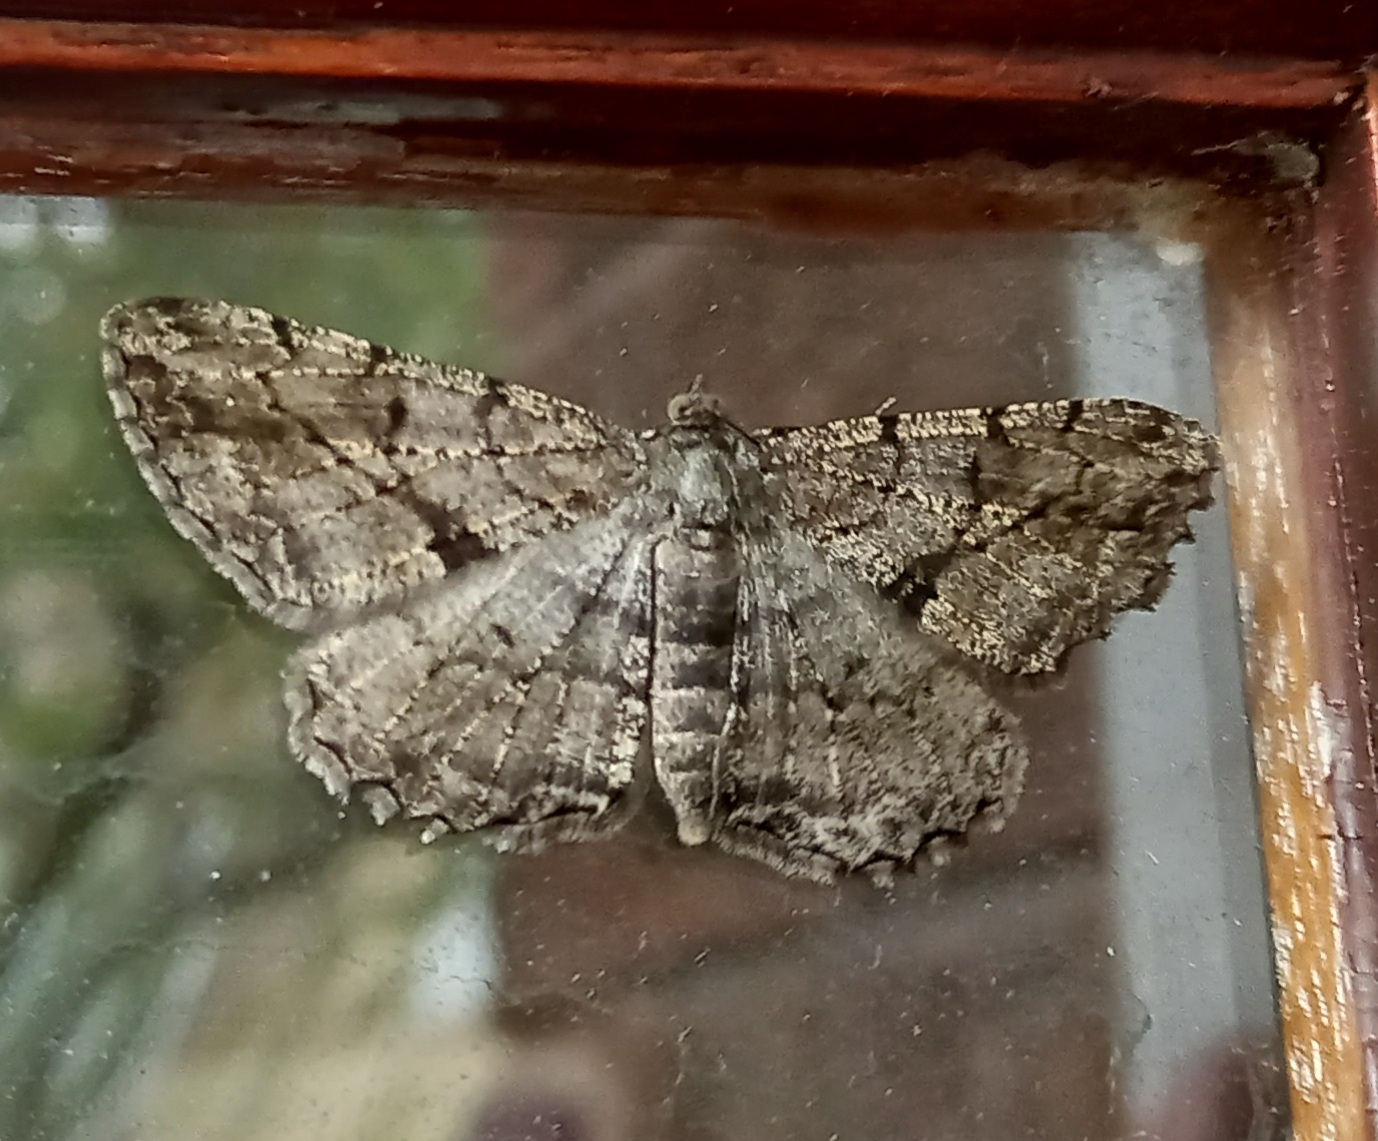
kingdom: Animalia
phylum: Arthropoda
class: Insecta
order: Lepidoptera
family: Geometridae
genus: Peribatodes
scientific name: Peribatodes rhomboidaria
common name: Willow beauty
